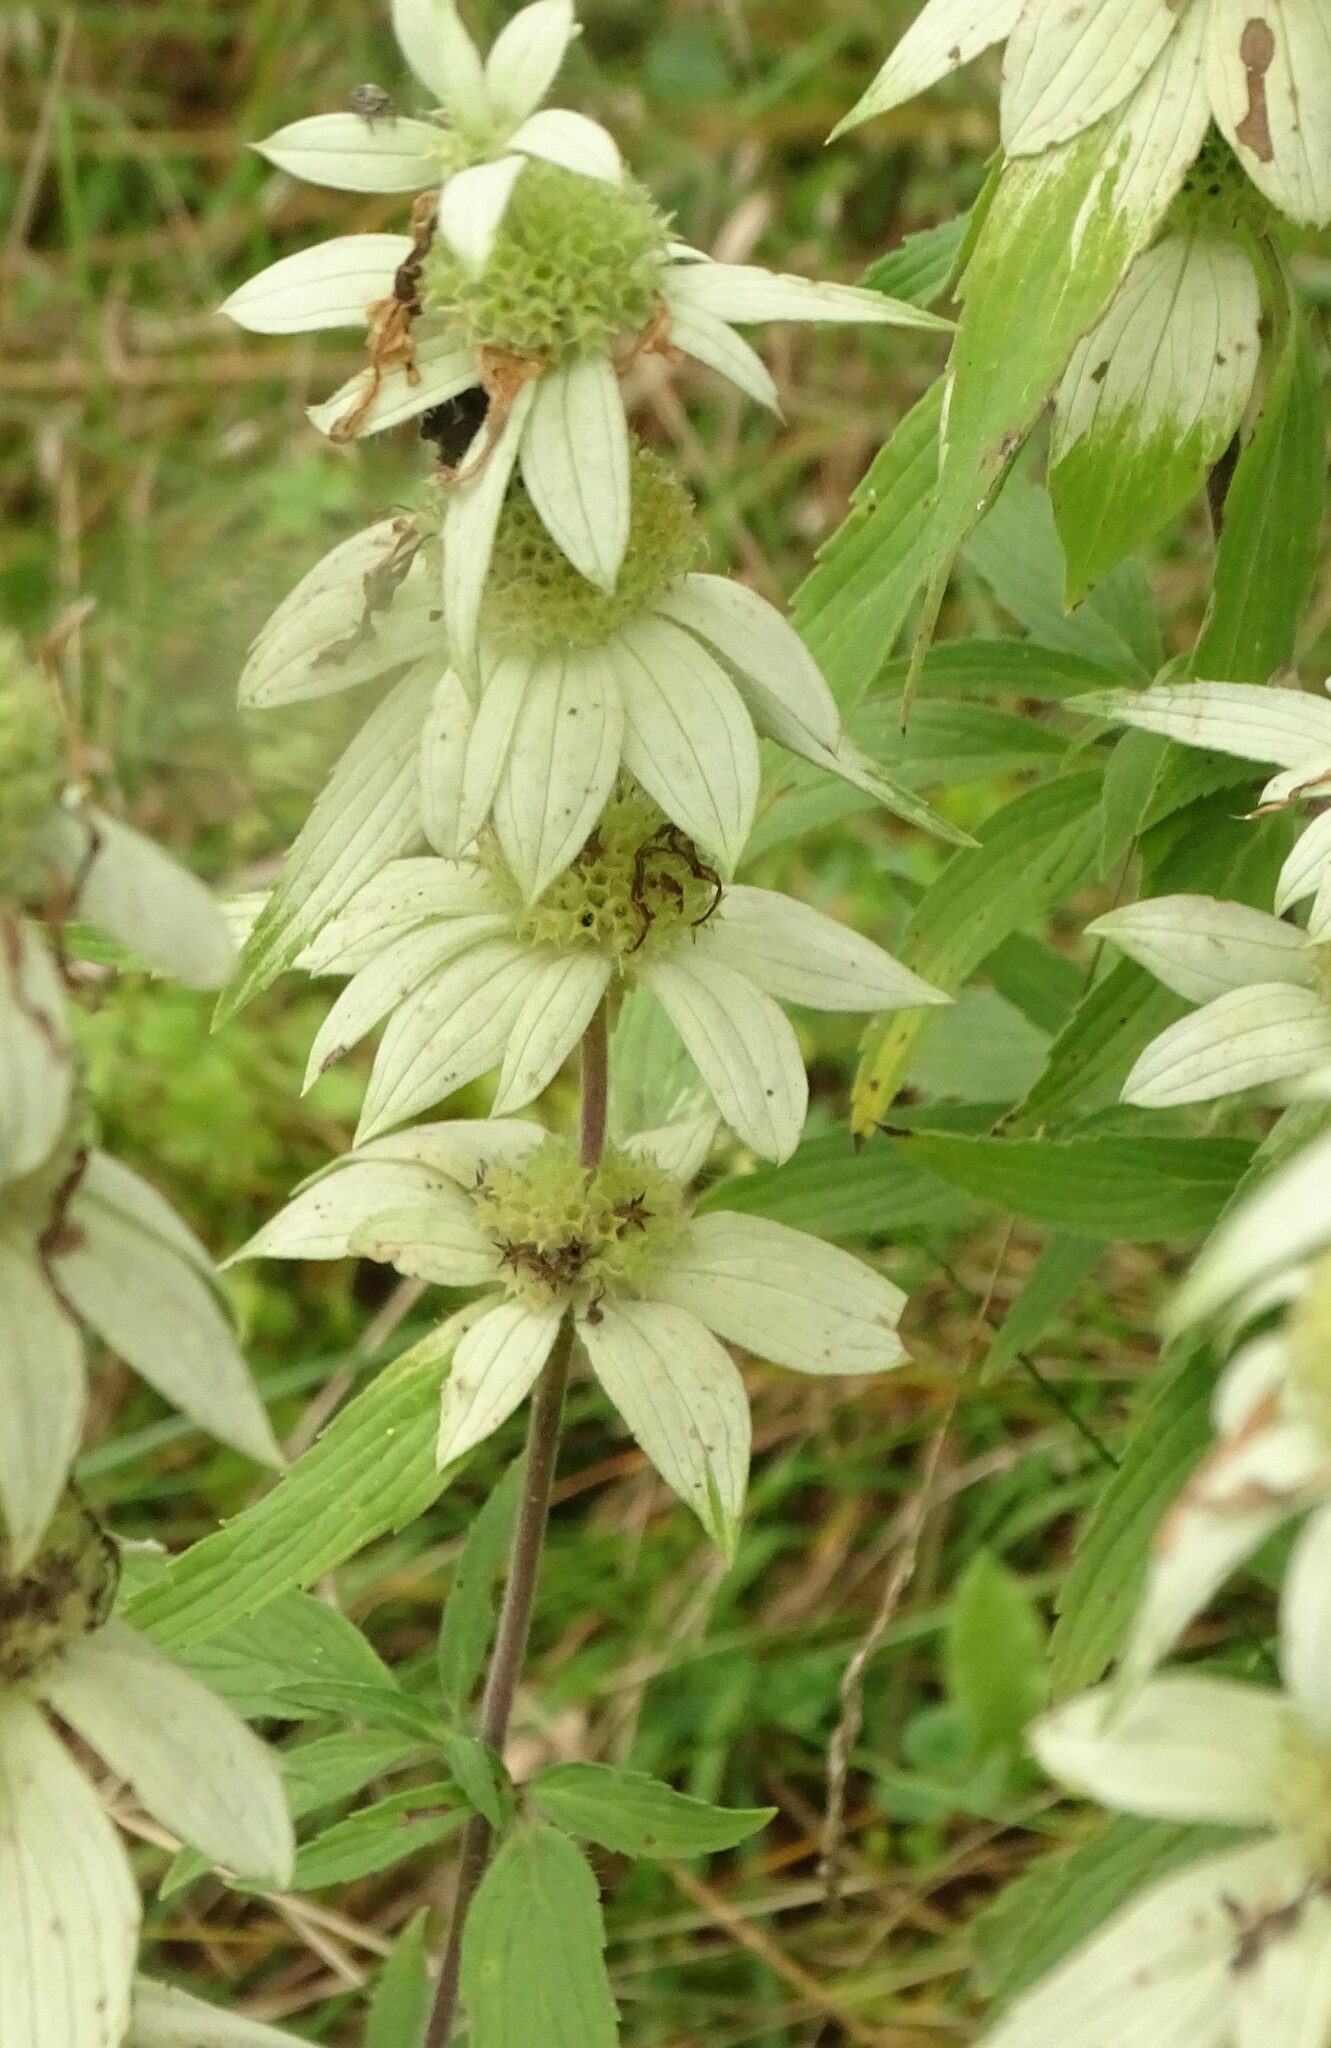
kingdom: Plantae
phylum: Tracheophyta
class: Magnoliopsida
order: Lamiales
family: Lamiaceae
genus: Monarda
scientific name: Monarda punctata
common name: Dotted monarda
